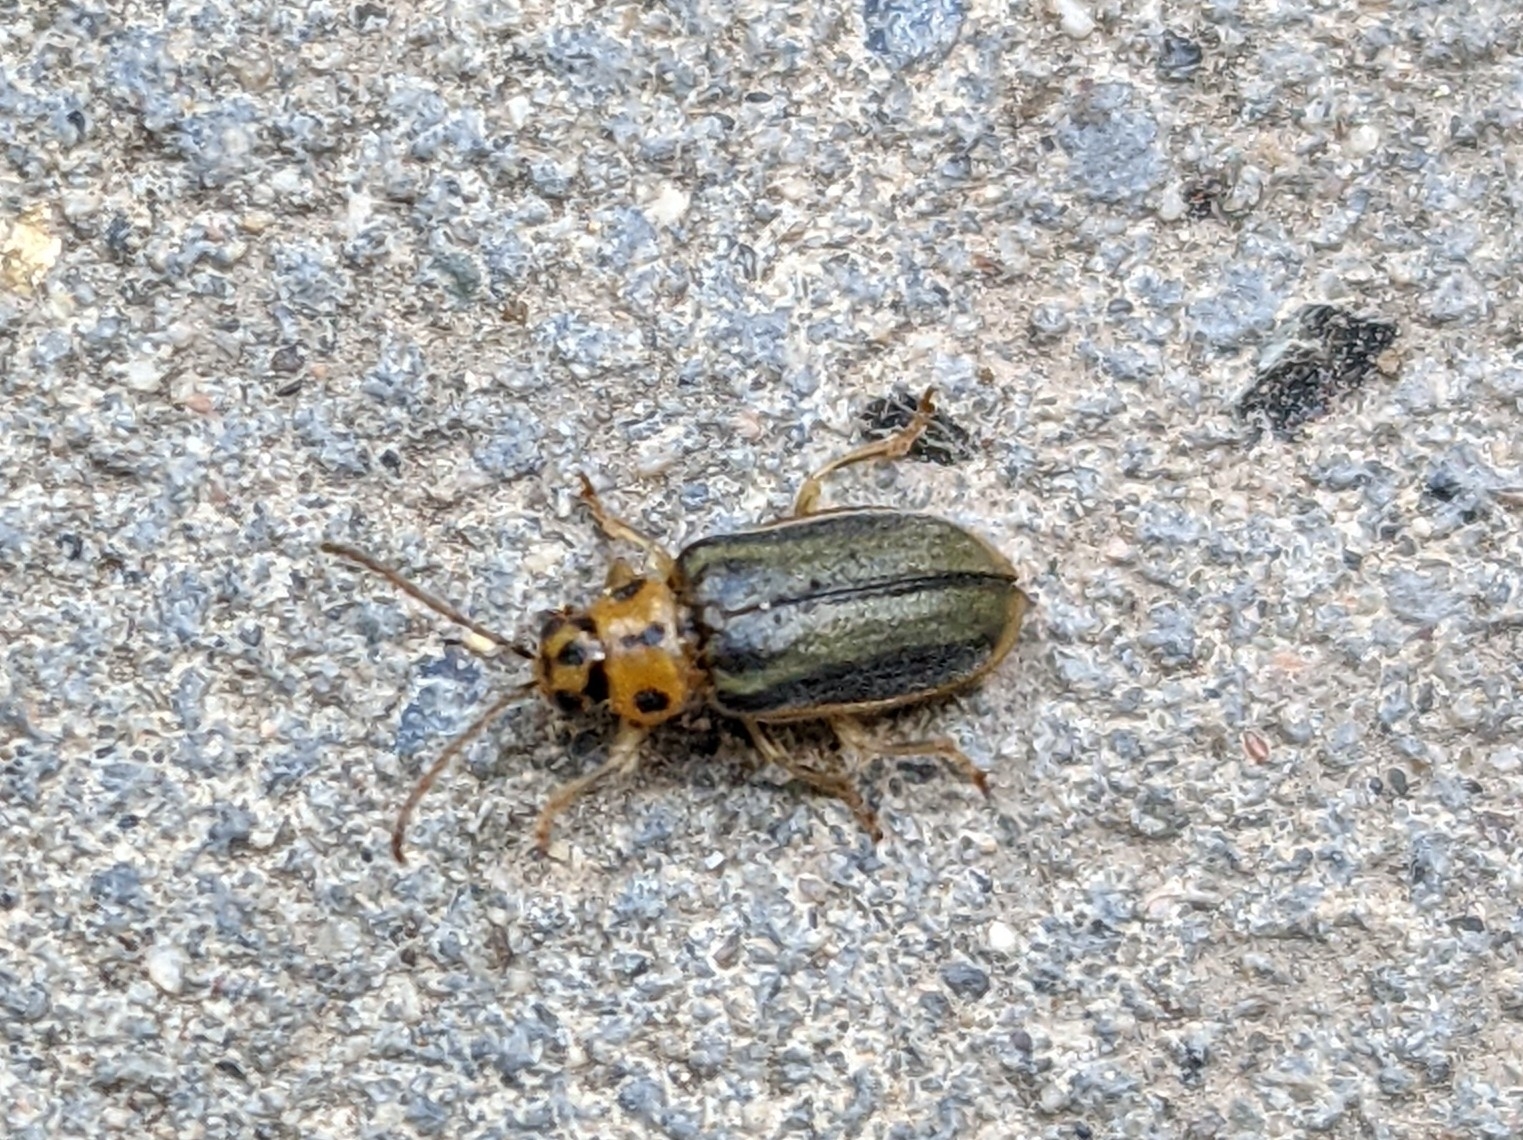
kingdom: Animalia
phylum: Arthropoda
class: Insecta
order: Coleoptera
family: Chrysomelidae
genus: Xanthogaleruca
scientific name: Xanthogaleruca luteola
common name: Elm leaf beetle
